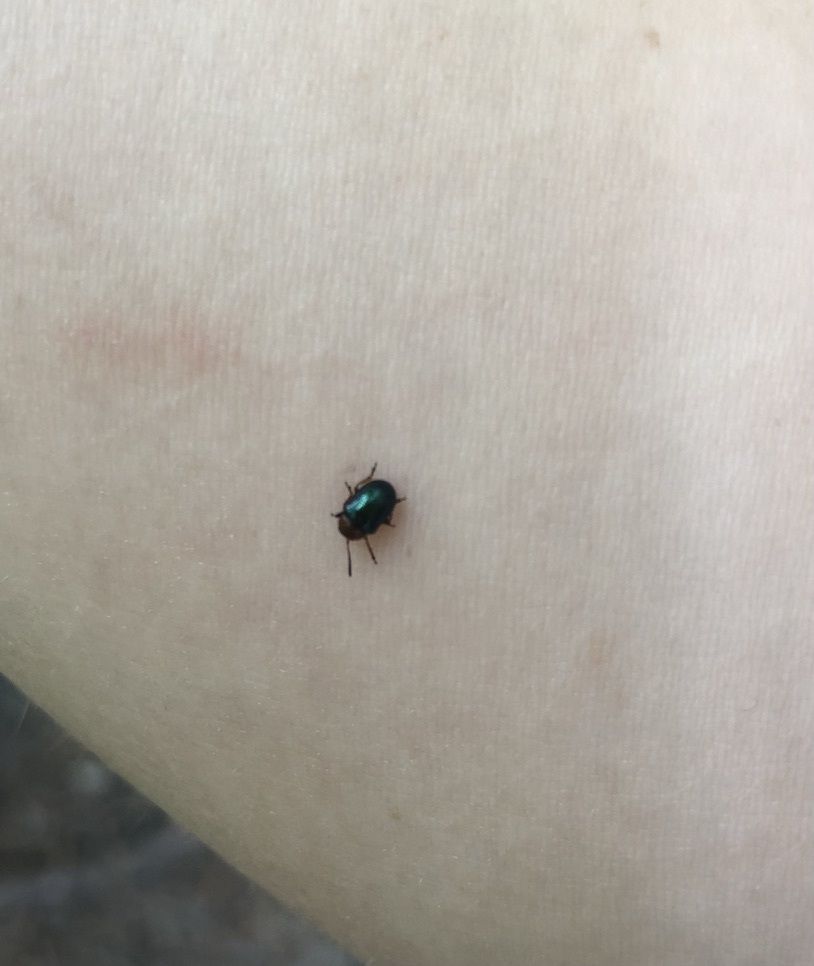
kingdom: Animalia
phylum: Arthropoda
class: Insecta
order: Coleoptera
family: Chrysomelidae
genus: Gastrophysa
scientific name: Gastrophysa polygoni
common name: Knotweed leaf beetle
